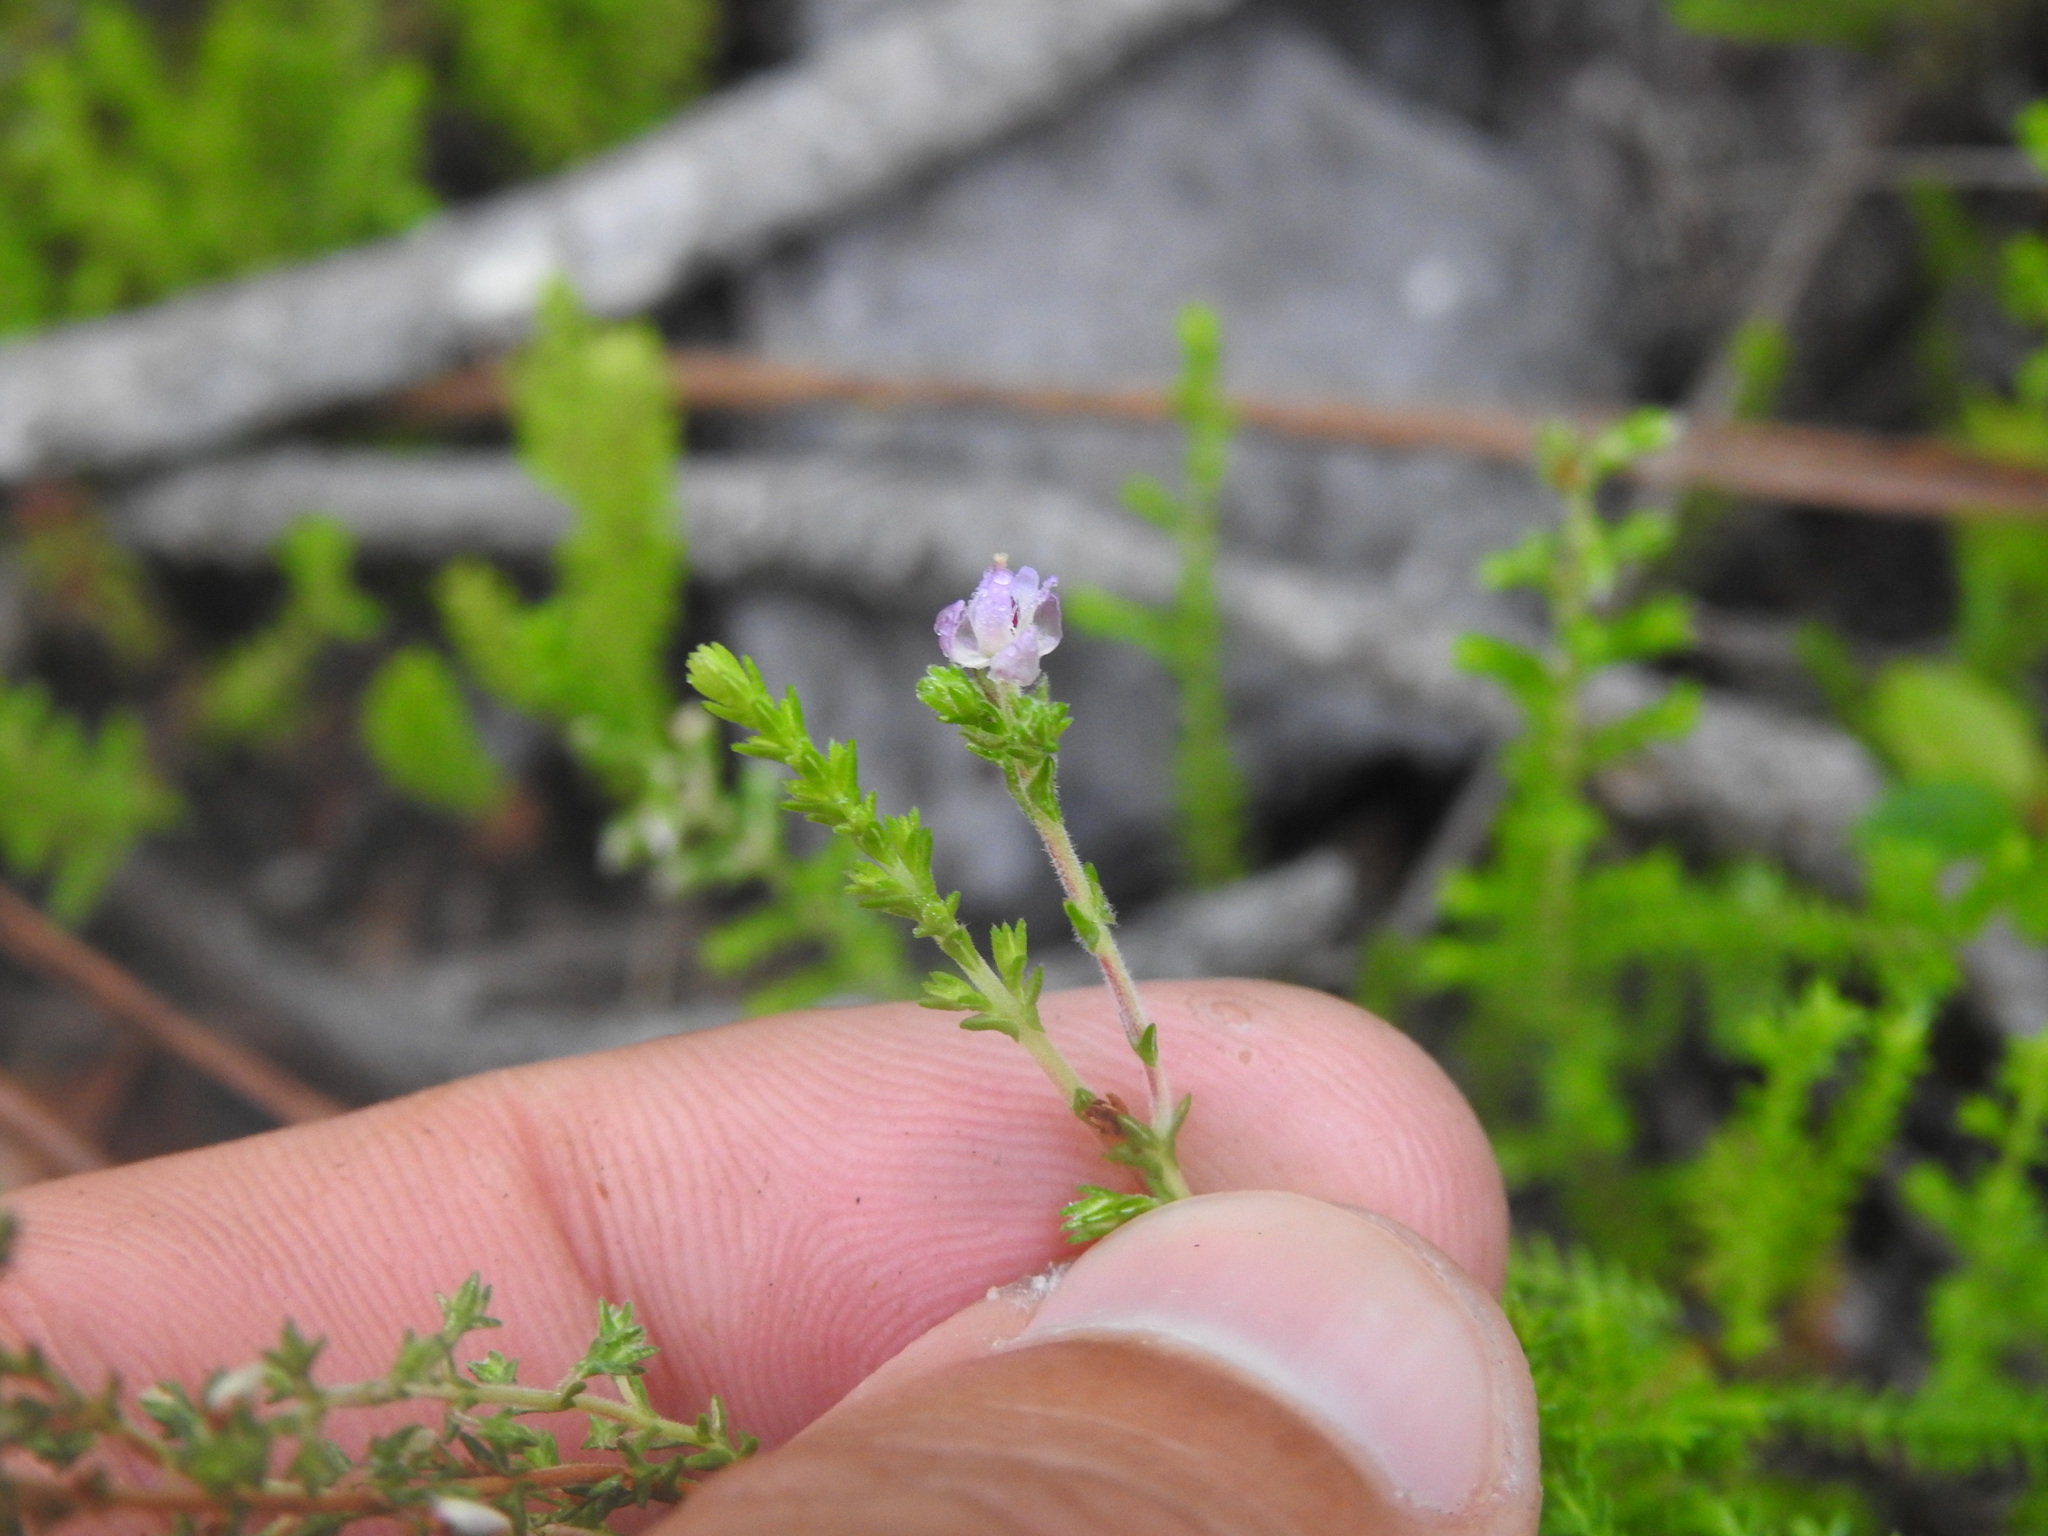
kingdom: Plantae
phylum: Tracheophyta
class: Magnoliopsida
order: Ericales
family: Ericaceae
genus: Calluna
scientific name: Calluna vulgaris
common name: Heather
